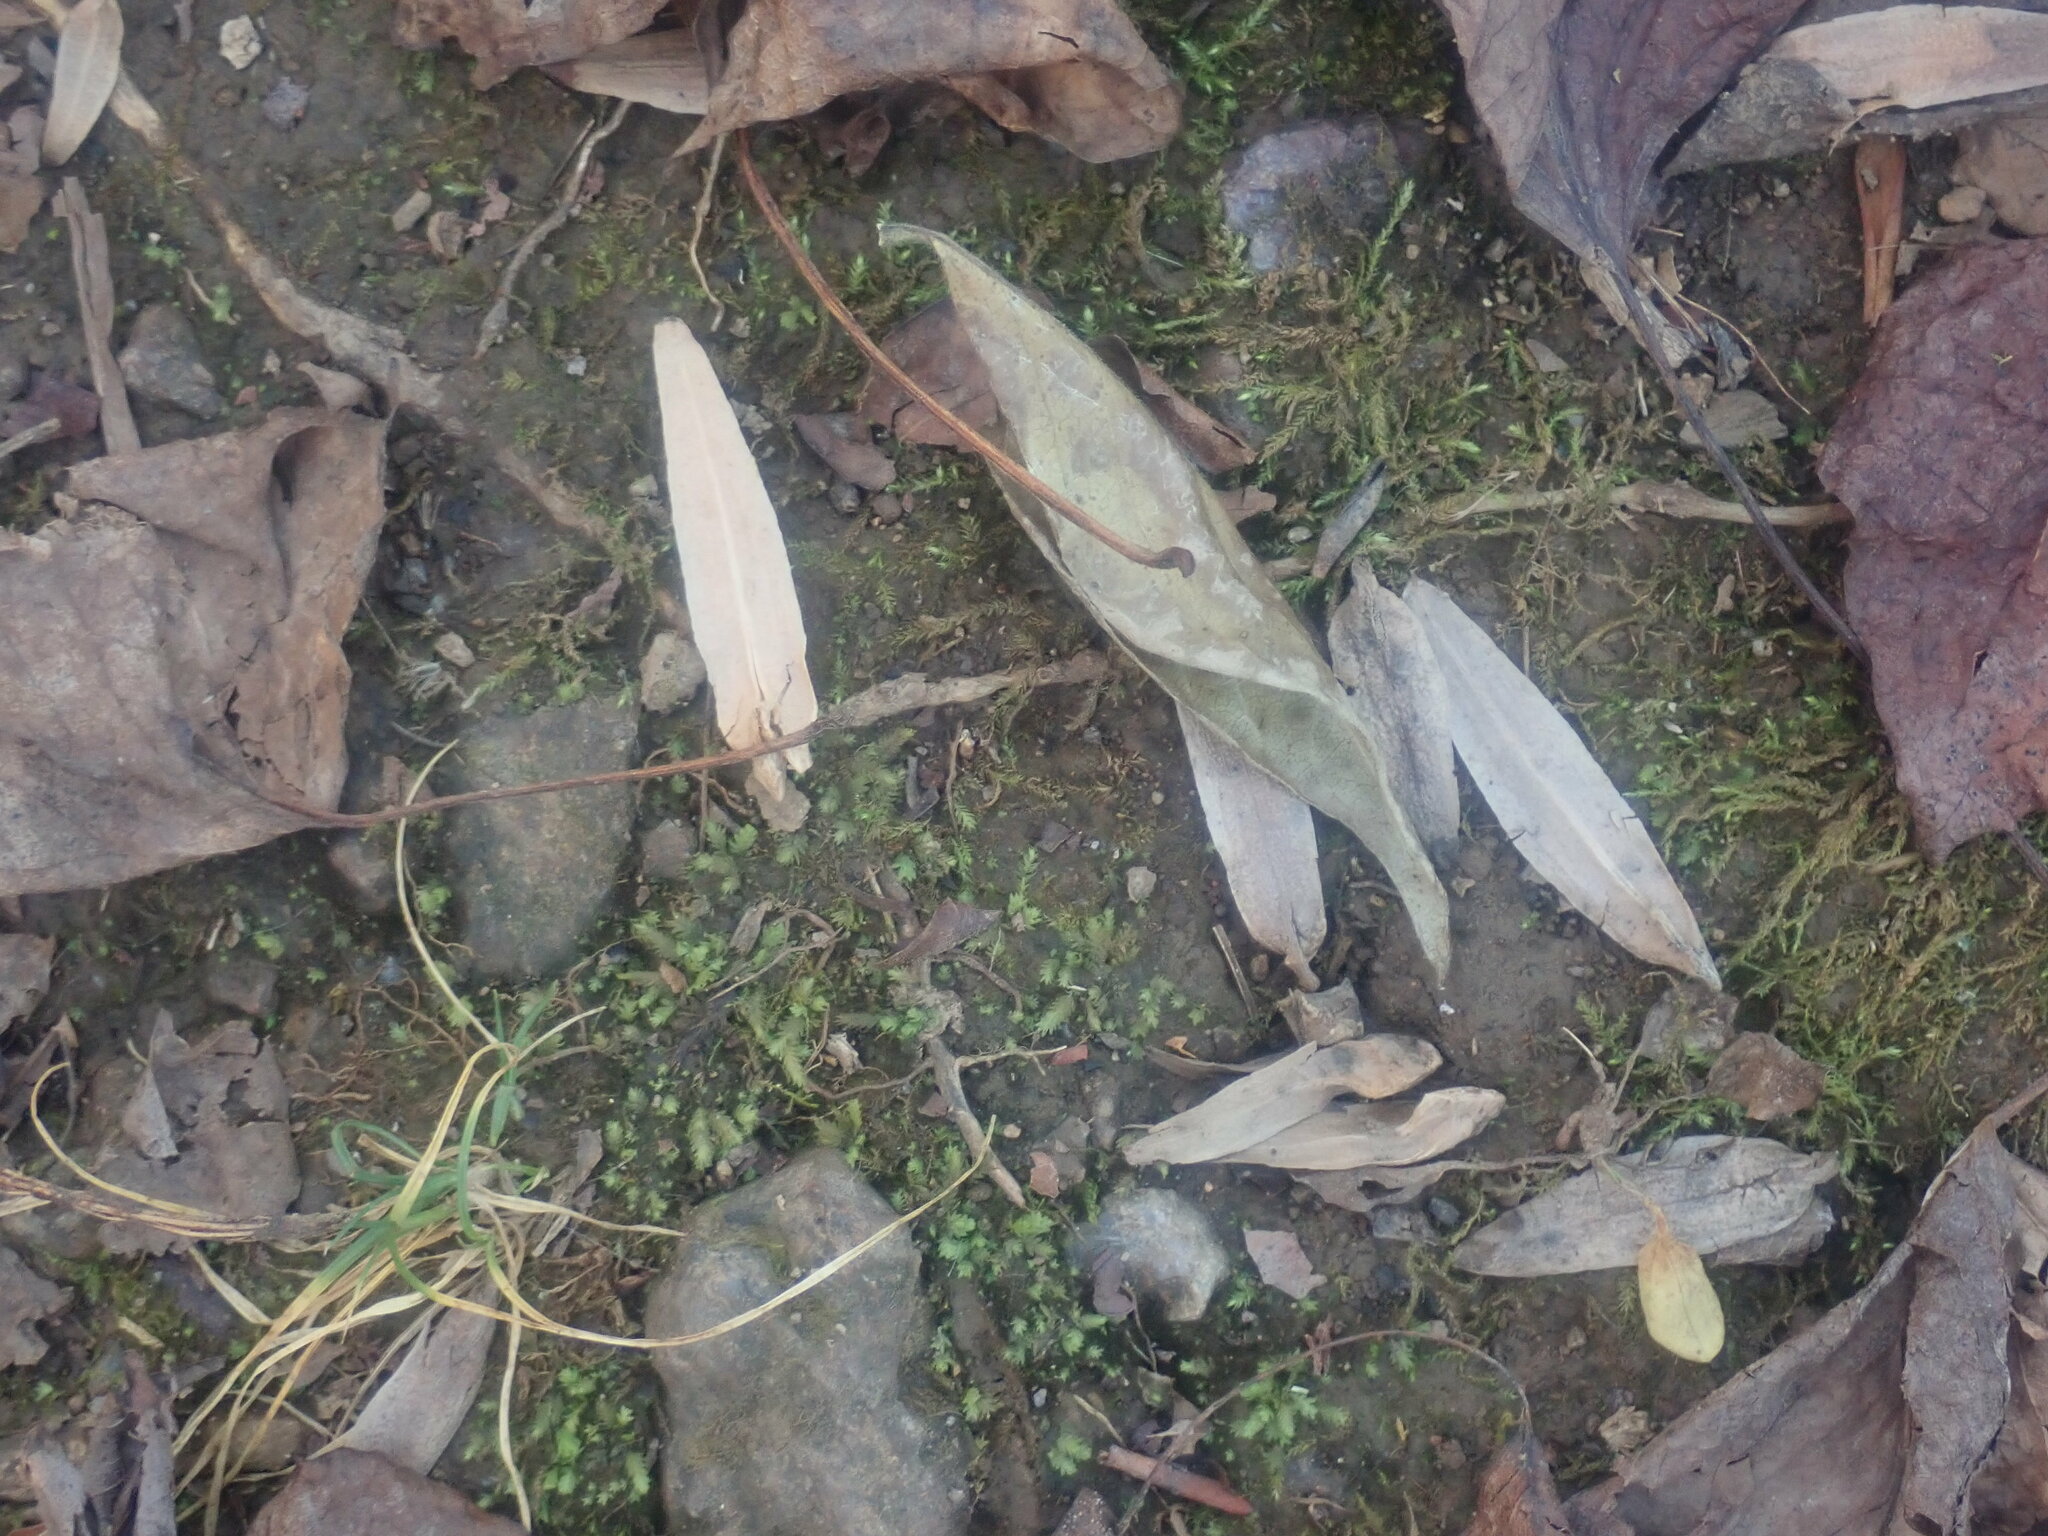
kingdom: Plantae
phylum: Tracheophyta
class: Magnoliopsida
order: Magnoliales
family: Magnoliaceae
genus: Liriodendron
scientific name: Liriodendron tulipifera
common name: Tulip tree
